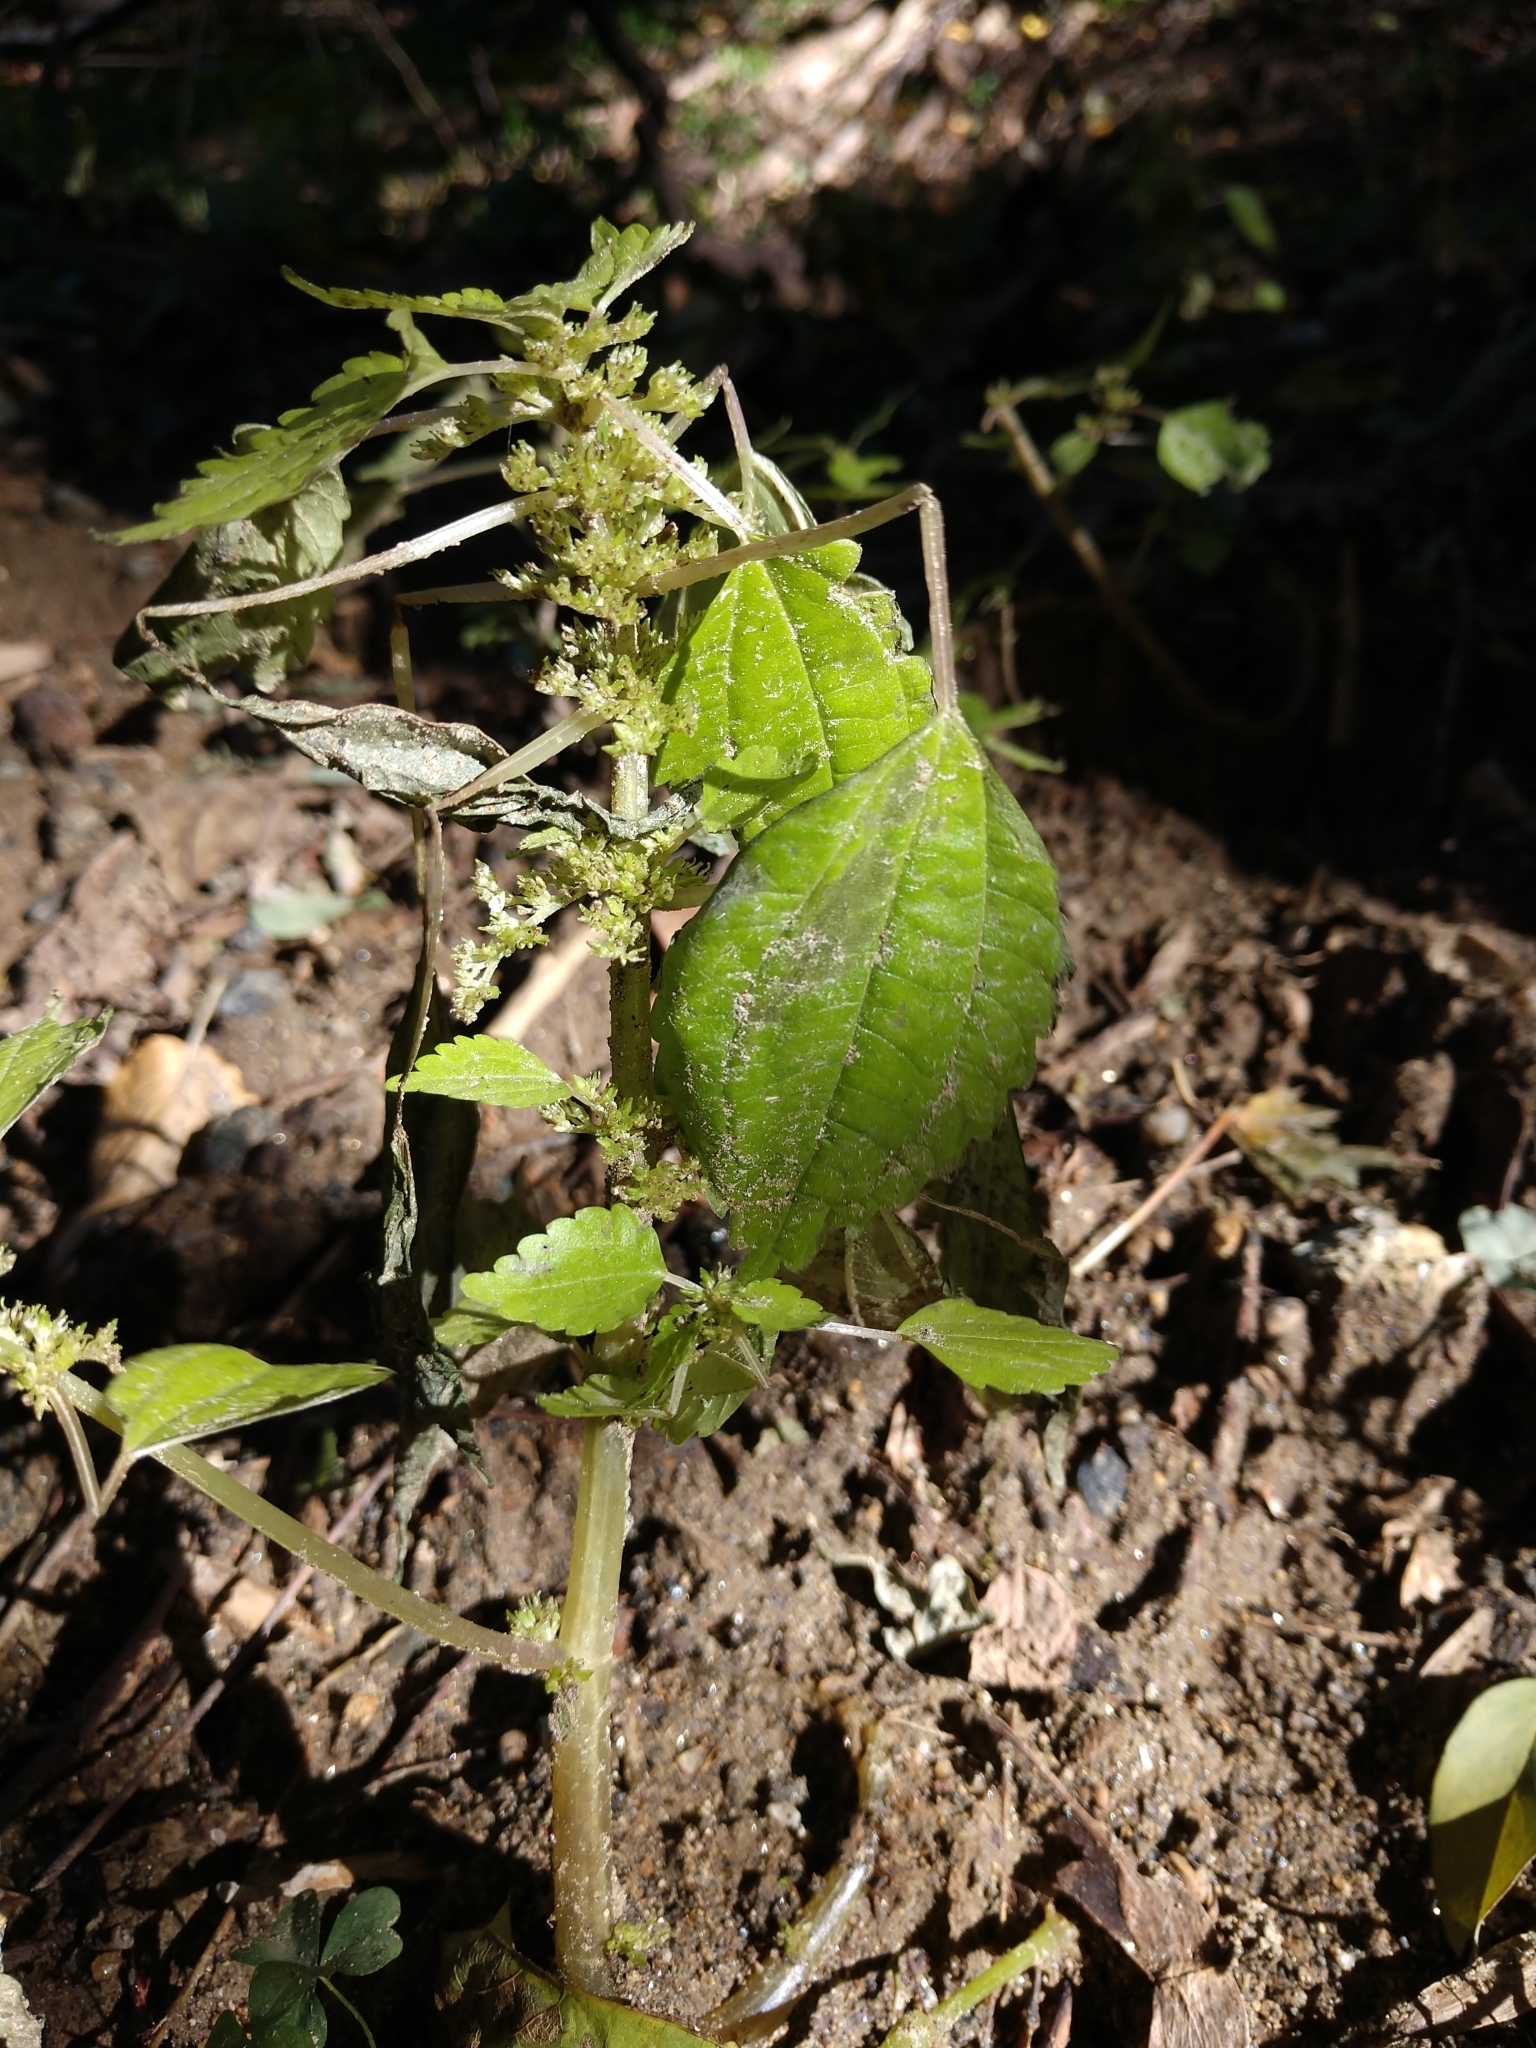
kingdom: Plantae
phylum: Tracheophyta
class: Magnoliopsida
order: Rosales
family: Urticaceae
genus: Pilea
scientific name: Pilea pumila
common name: Clearweed
